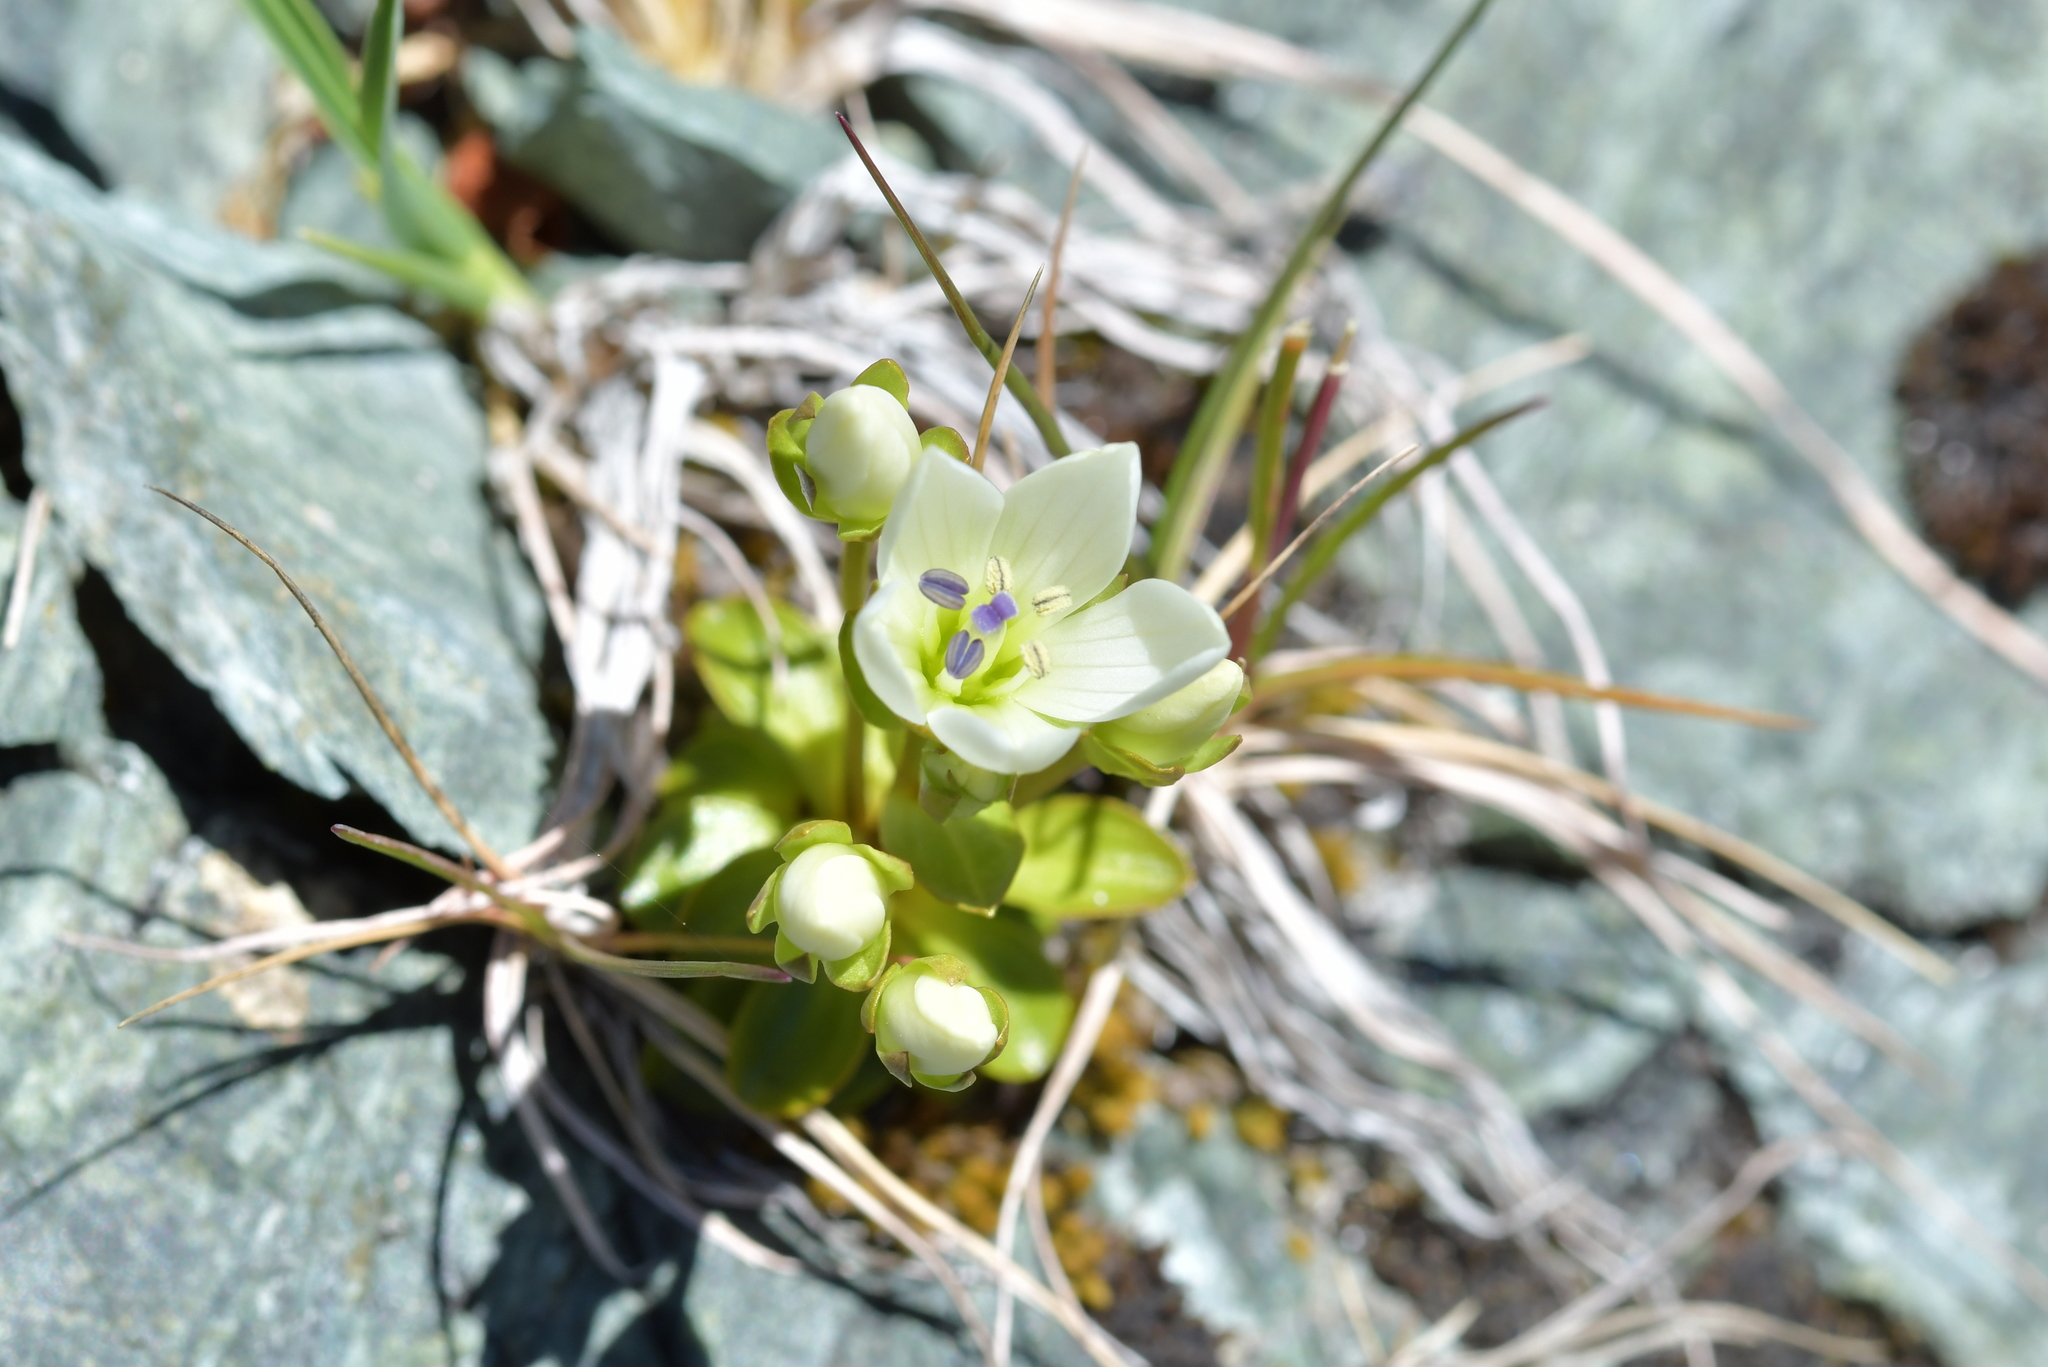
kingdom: Plantae
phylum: Tracheophyta
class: Magnoliopsida
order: Gentianales
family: Gentianaceae
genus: Gentianella
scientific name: Gentianella divisa
